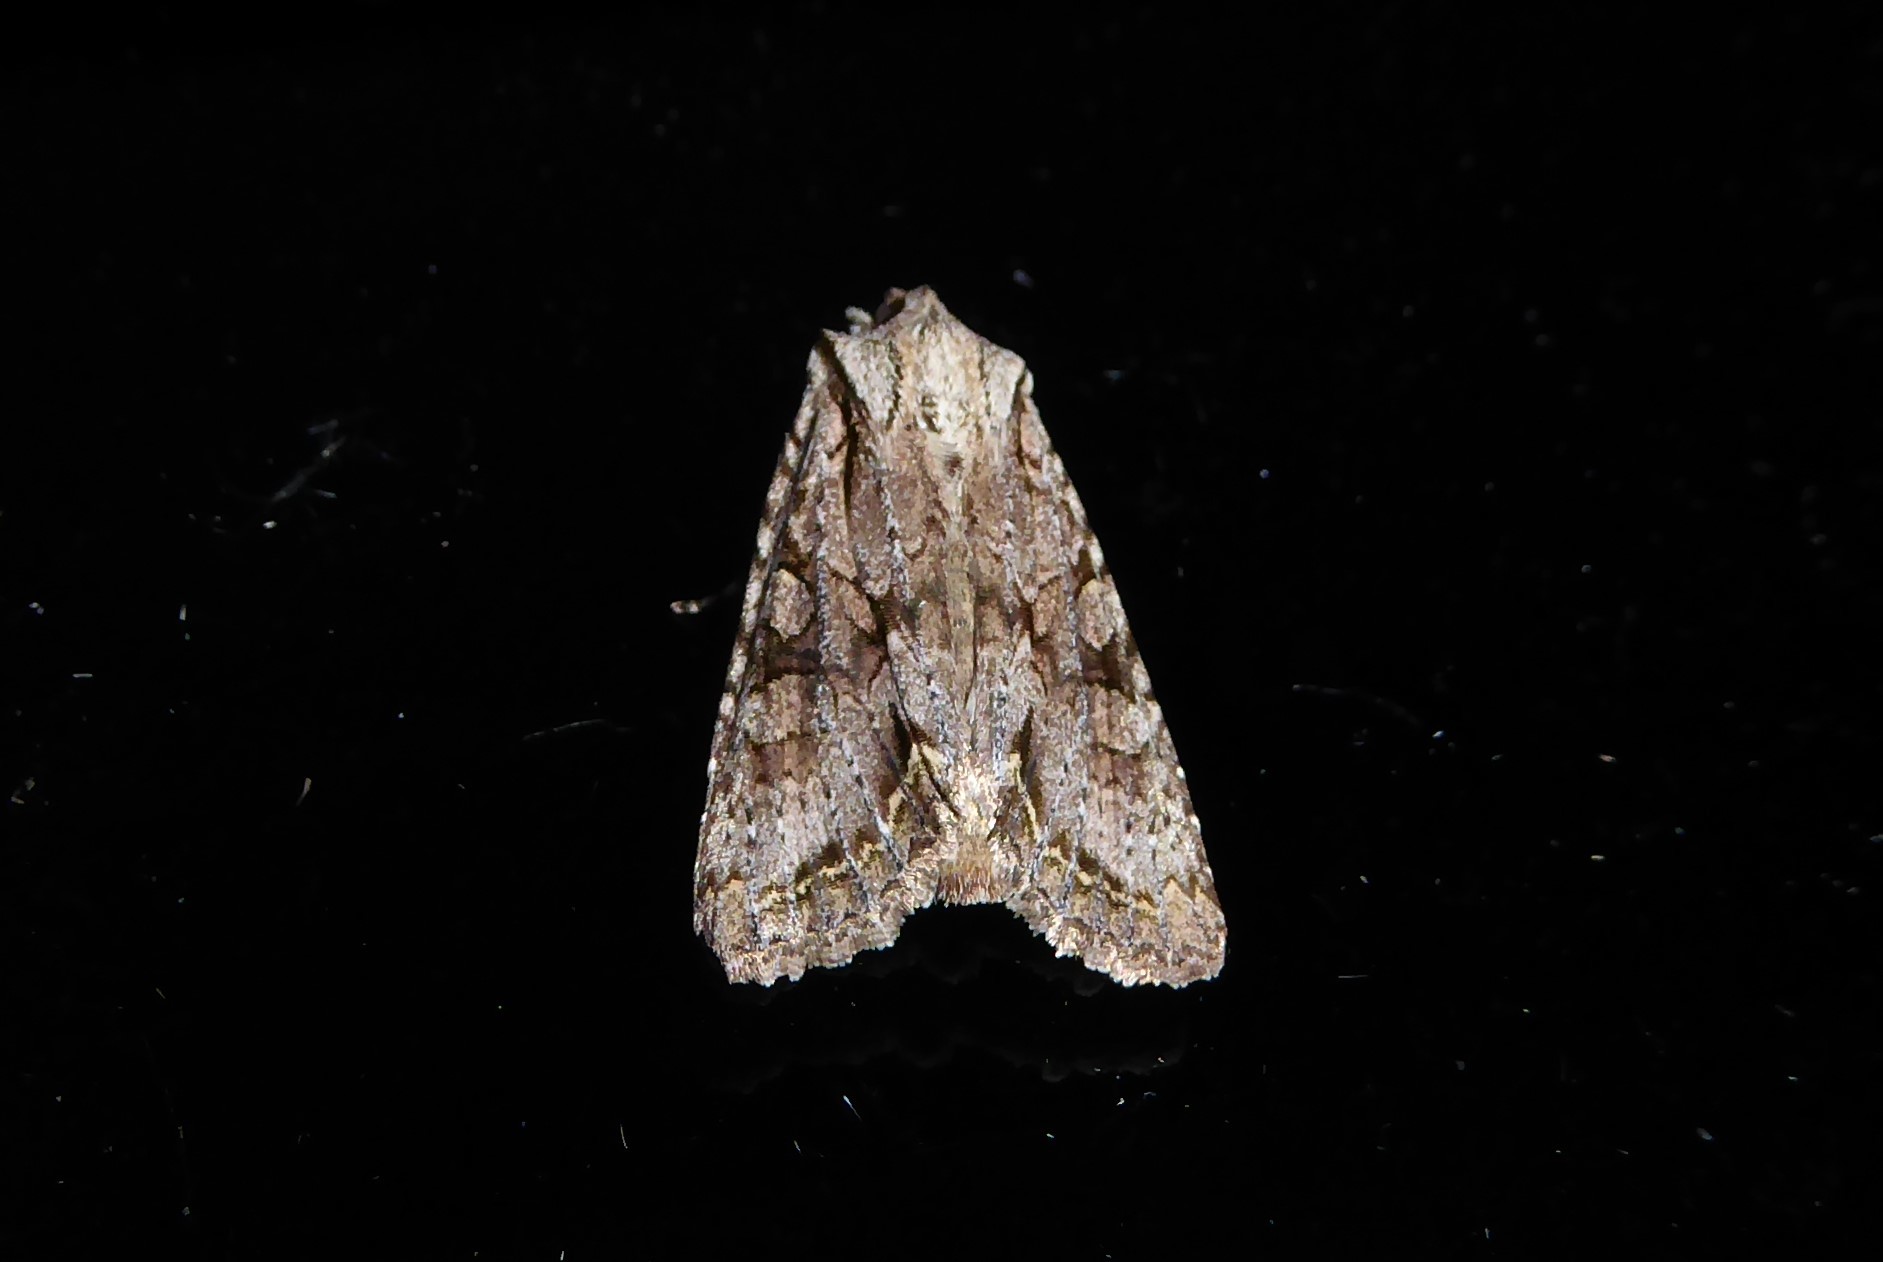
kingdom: Animalia
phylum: Arthropoda
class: Insecta
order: Lepidoptera
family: Noctuidae
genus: Ichneutica
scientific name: Ichneutica mutans
